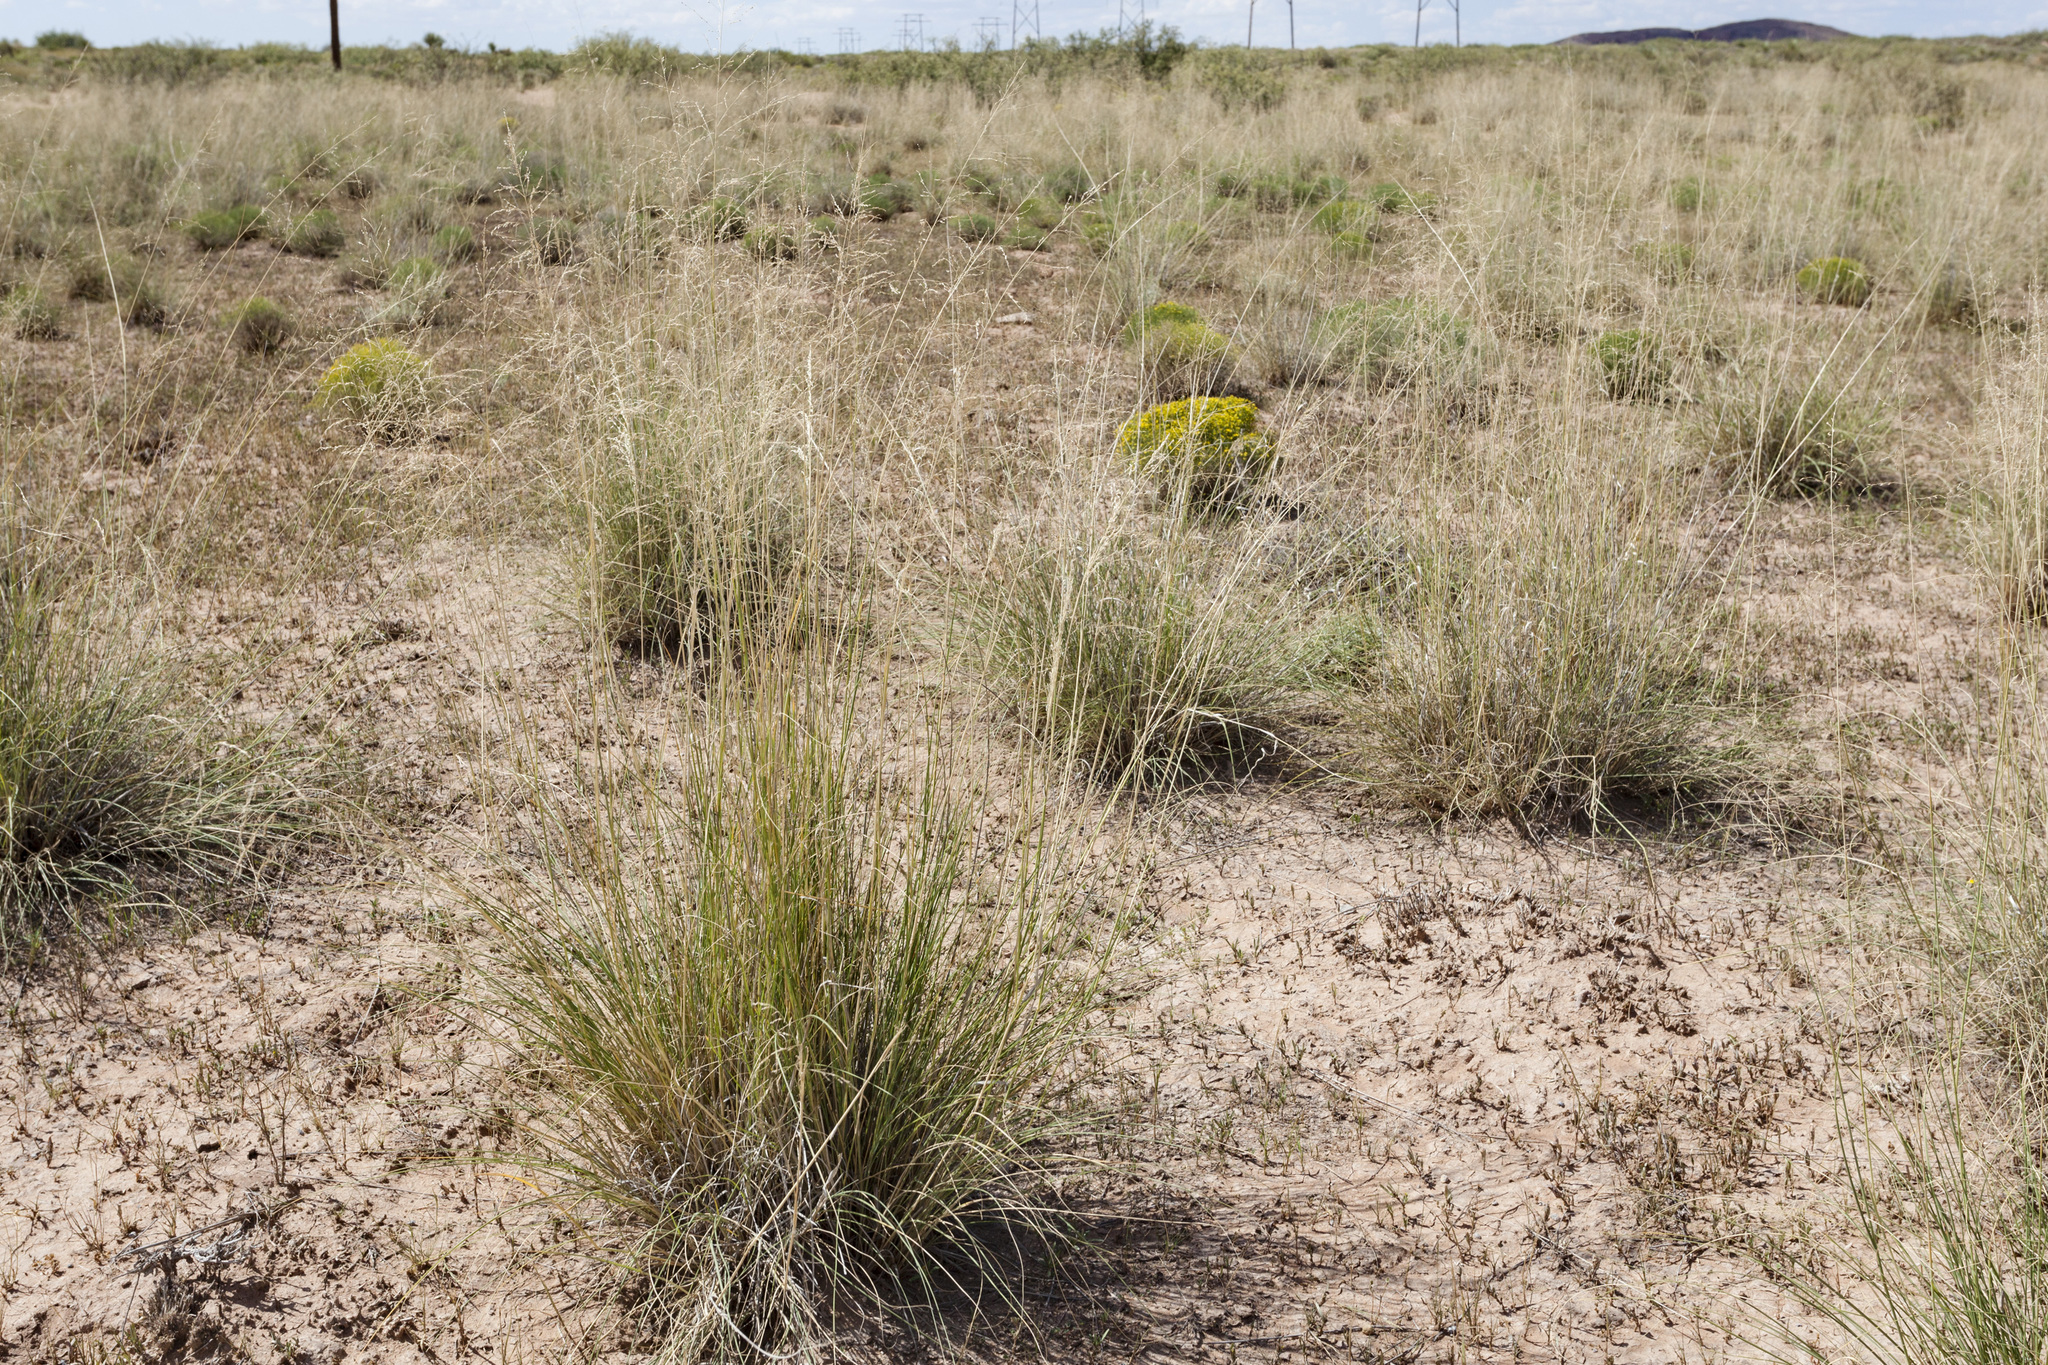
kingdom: Plantae
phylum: Tracheophyta
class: Liliopsida
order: Poales
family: Poaceae
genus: Sporobolus
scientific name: Sporobolus airoides
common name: Alkali sacaton
